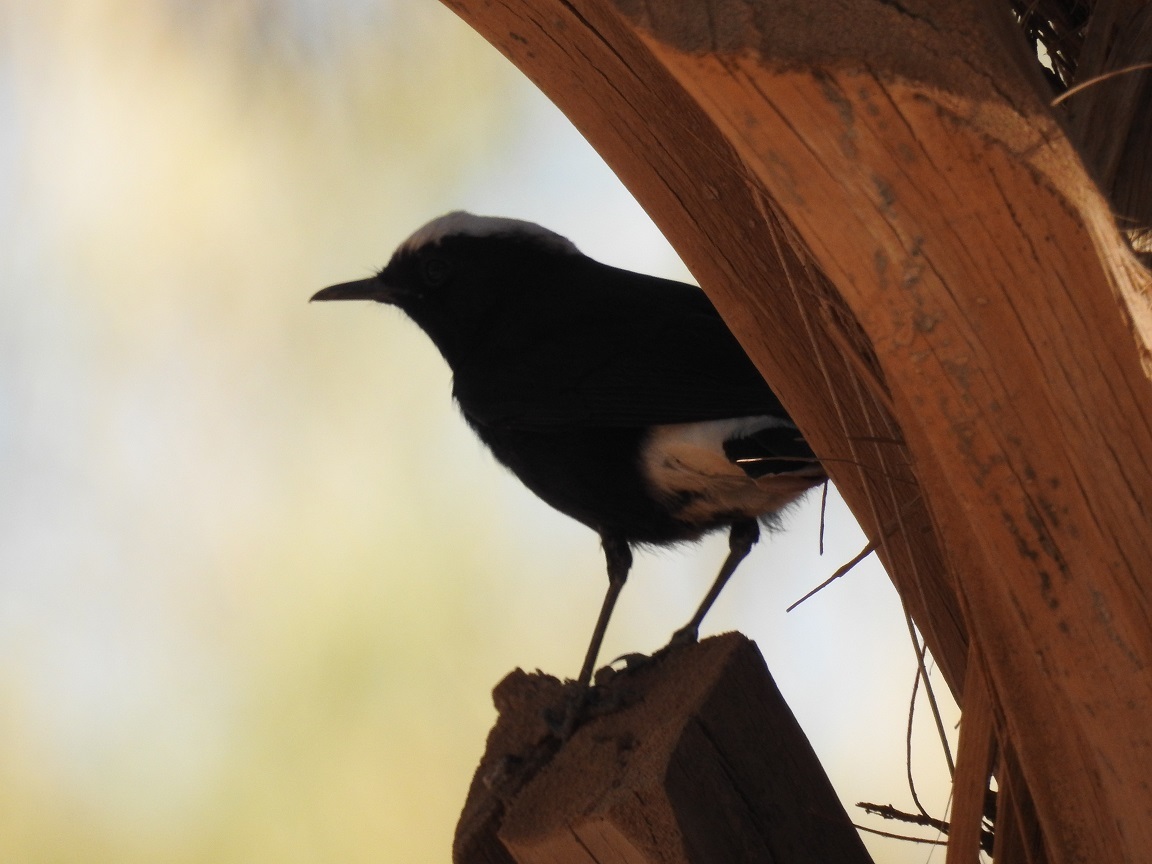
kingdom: Animalia
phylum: Chordata
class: Aves
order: Passeriformes
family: Muscicapidae
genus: Oenanthe
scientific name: Oenanthe leucopyga
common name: White-crowned wheatear
